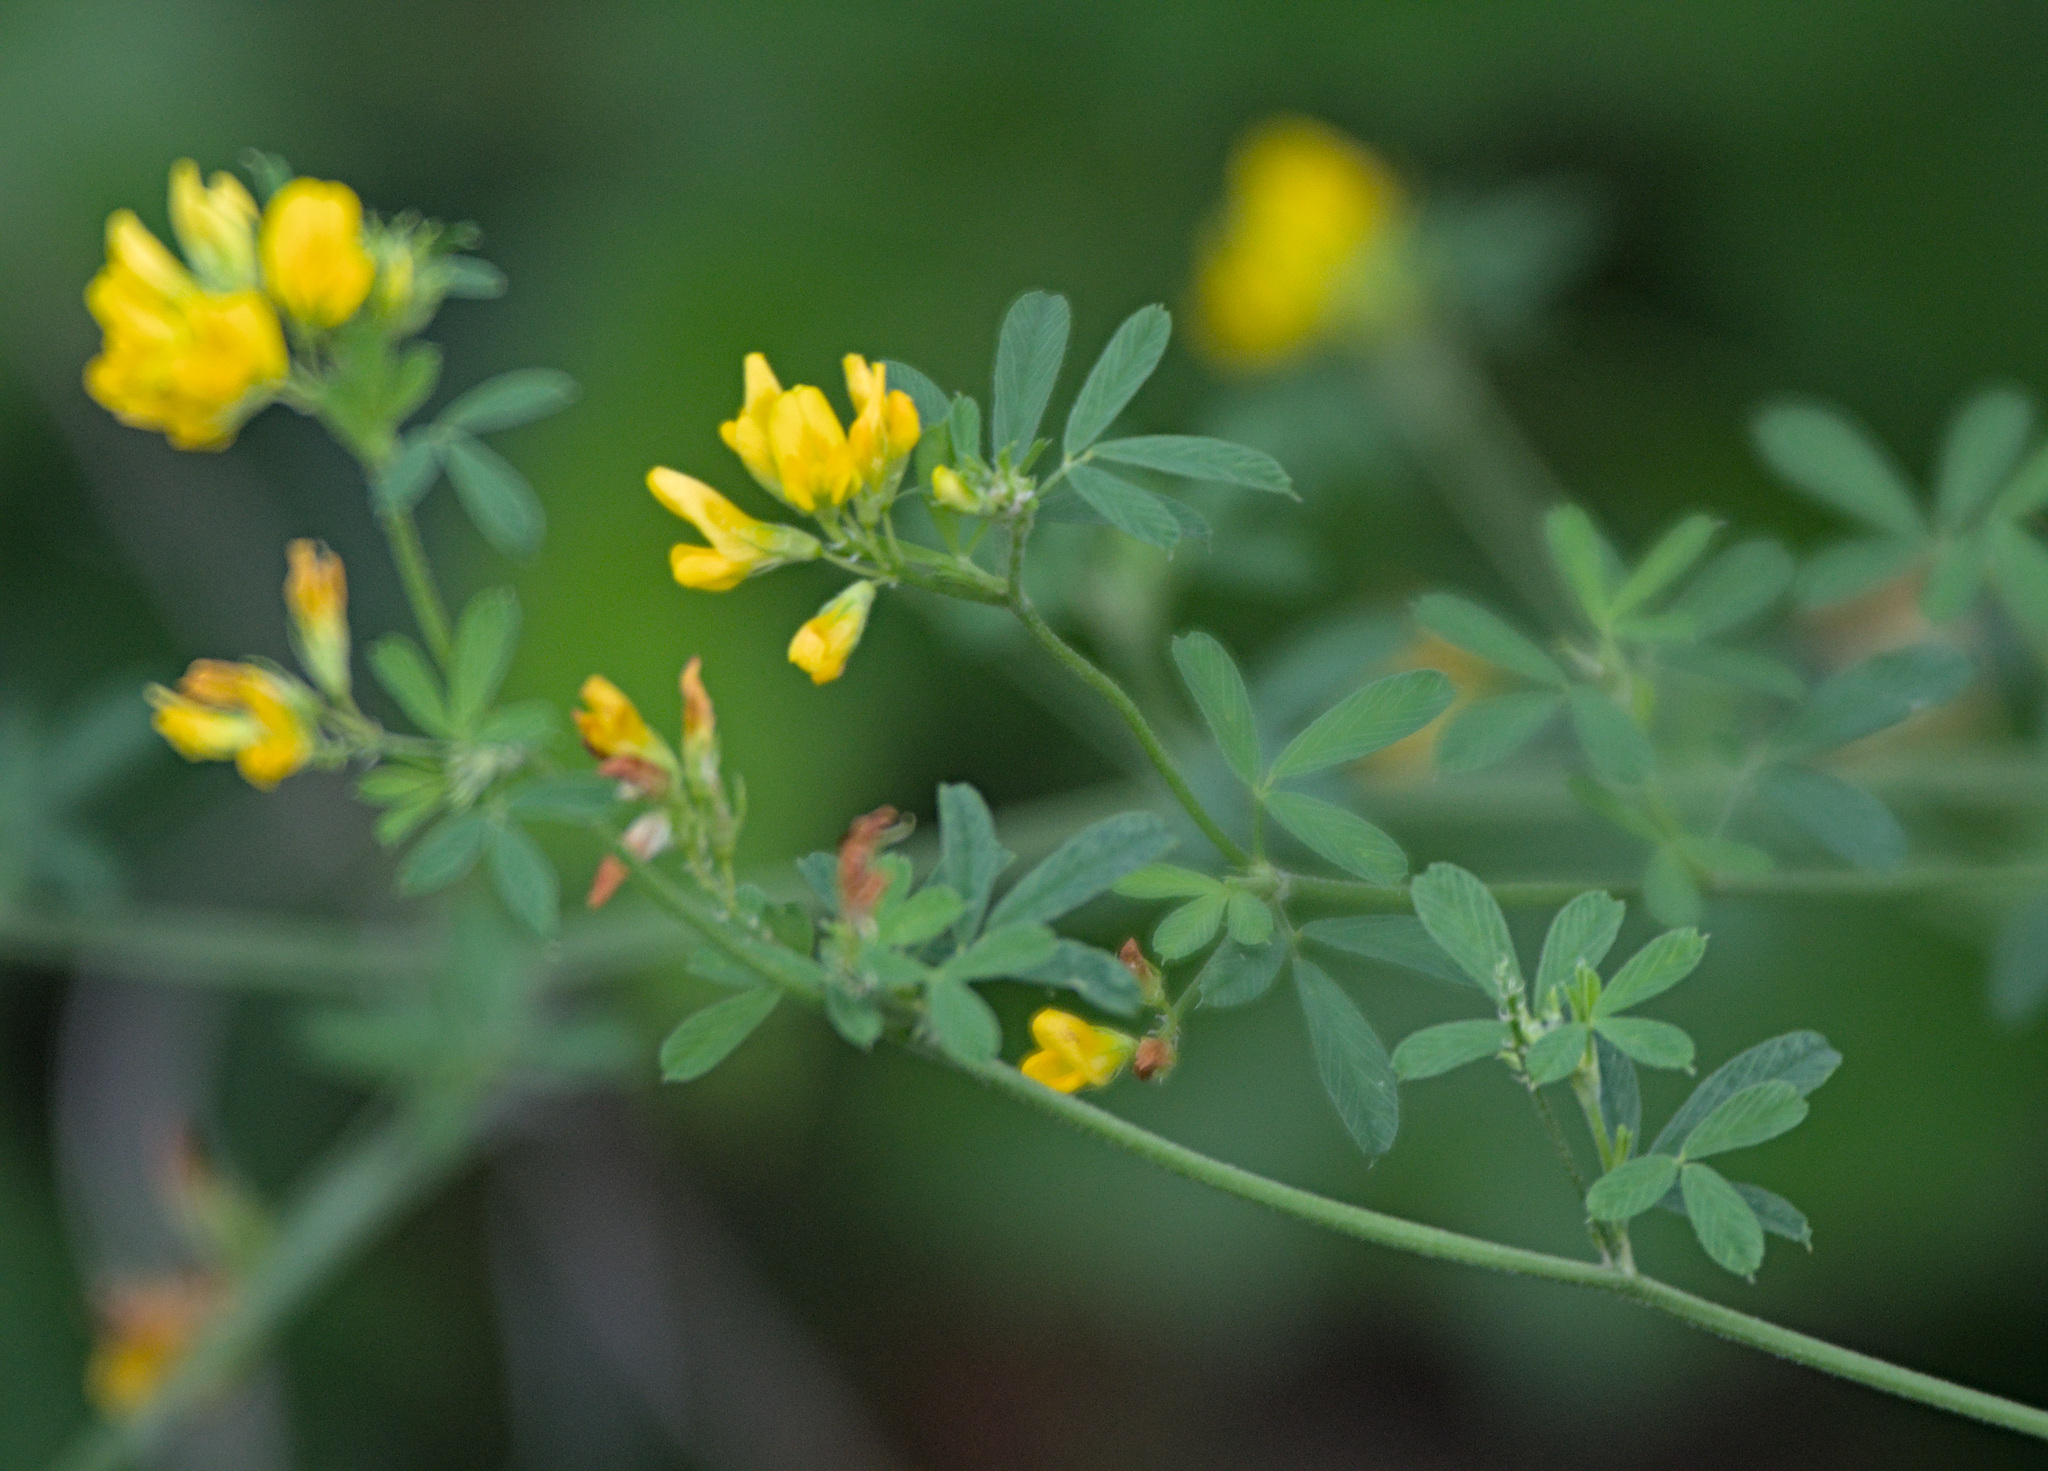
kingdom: Plantae
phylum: Tracheophyta
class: Magnoliopsida
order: Fabales
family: Fabaceae
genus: Medicago
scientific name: Medicago falcata
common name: Sickle medick
